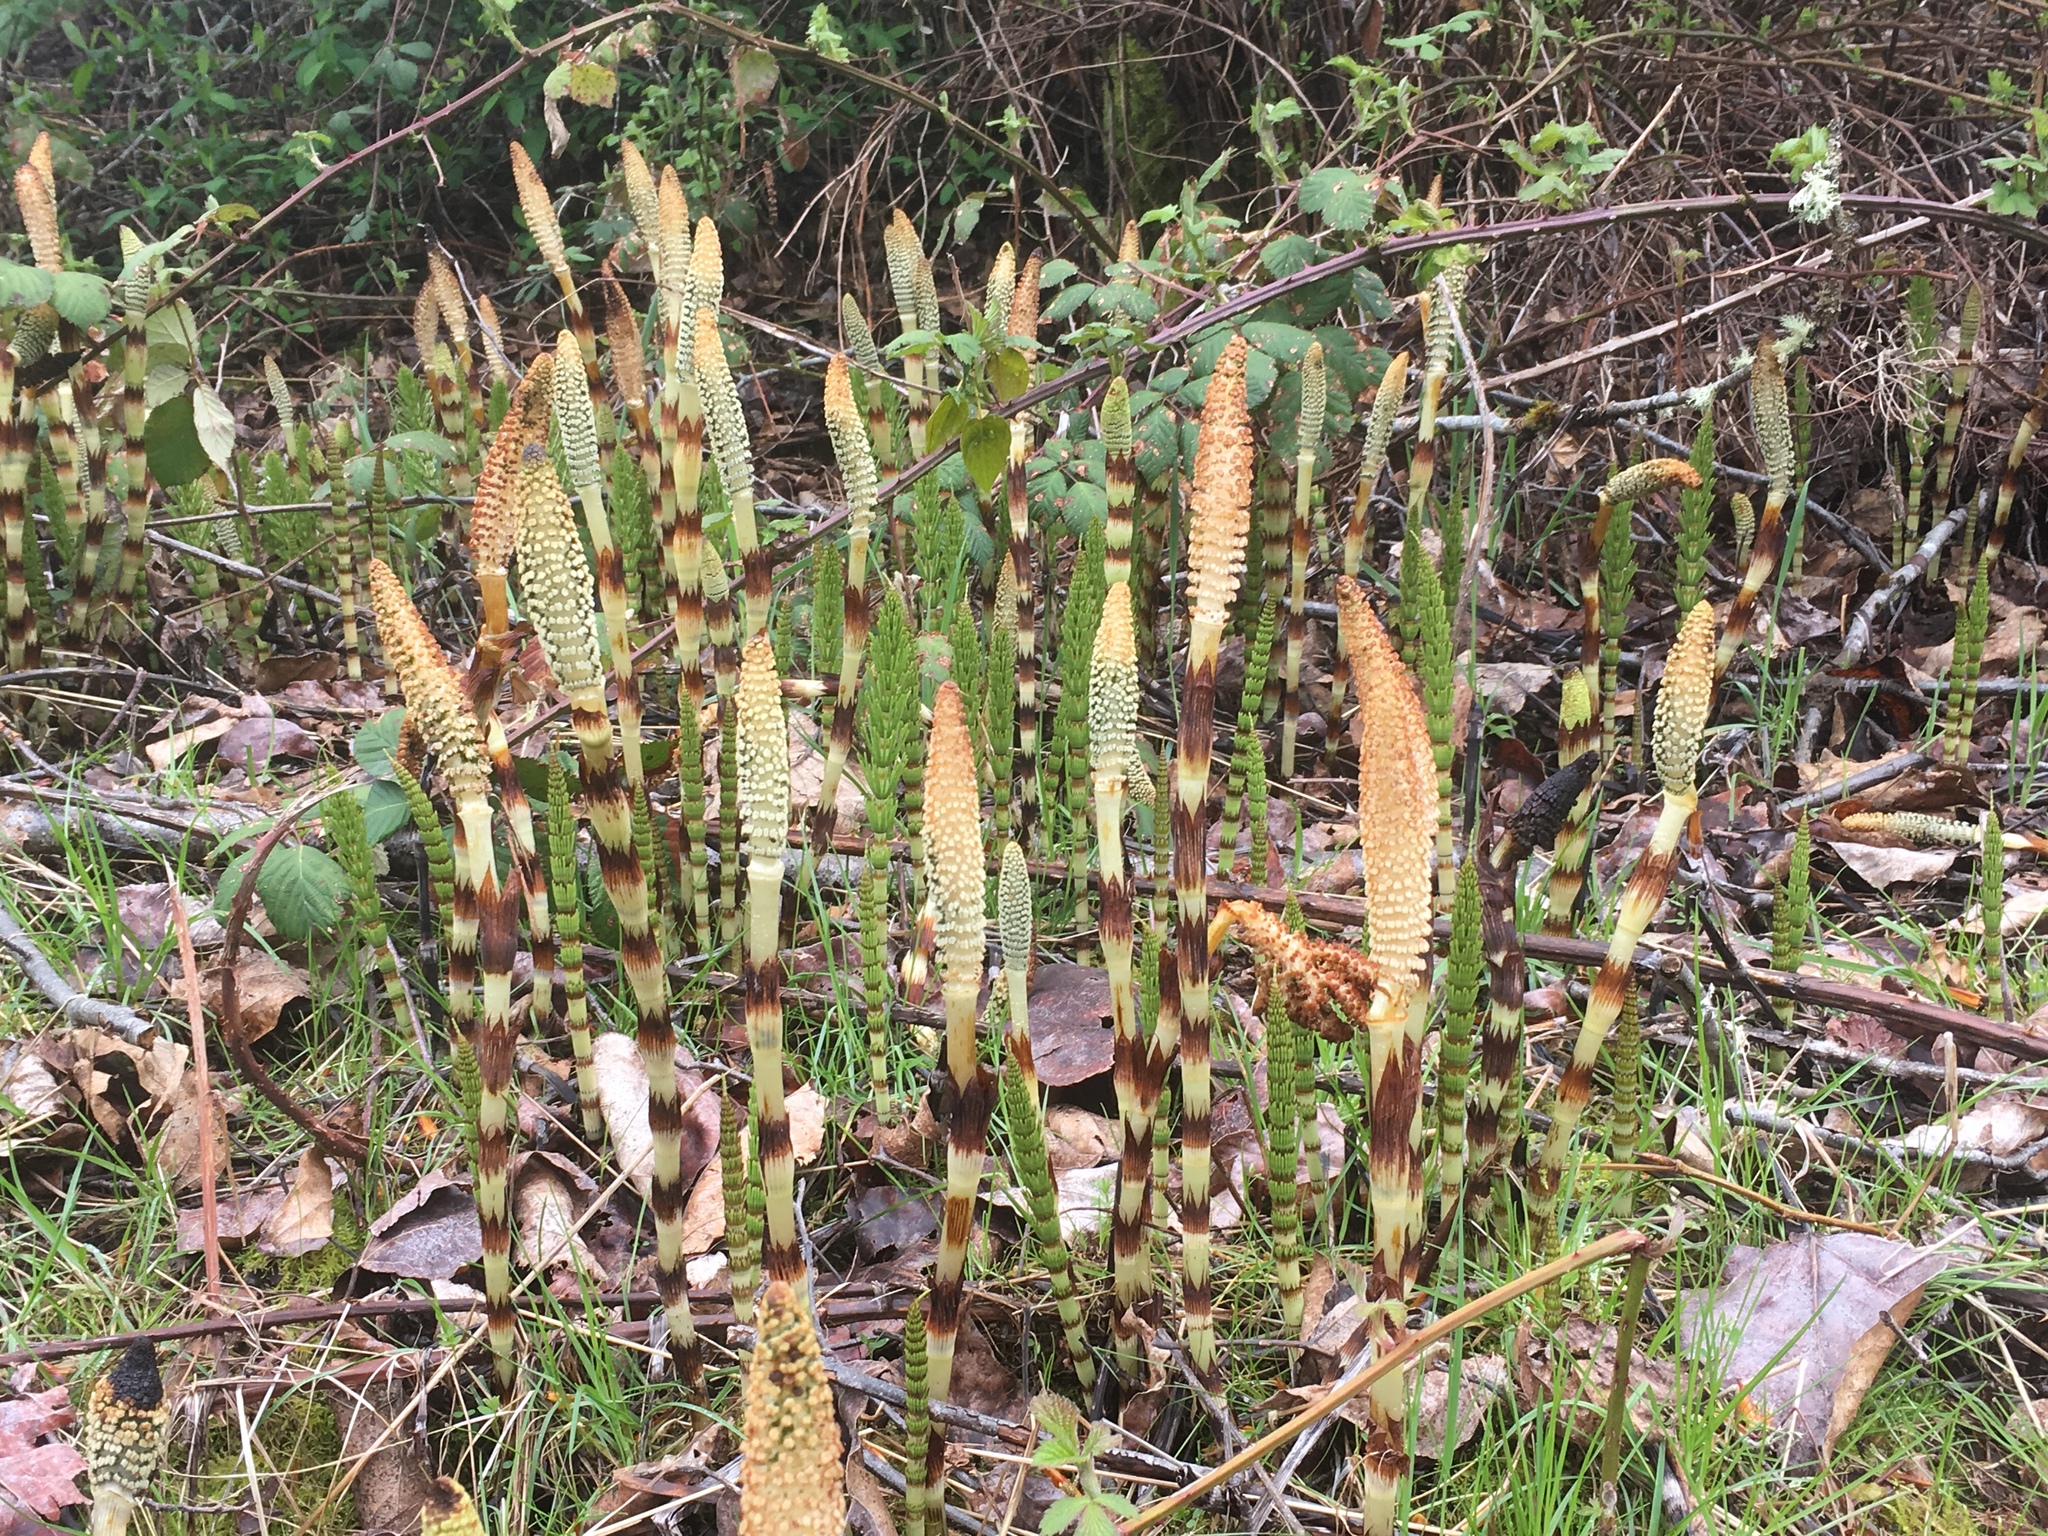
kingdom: Plantae
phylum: Tracheophyta
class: Polypodiopsida
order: Equisetales
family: Equisetaceae
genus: Equisetum
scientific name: Equisetum braunii
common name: Braun's horsetail
